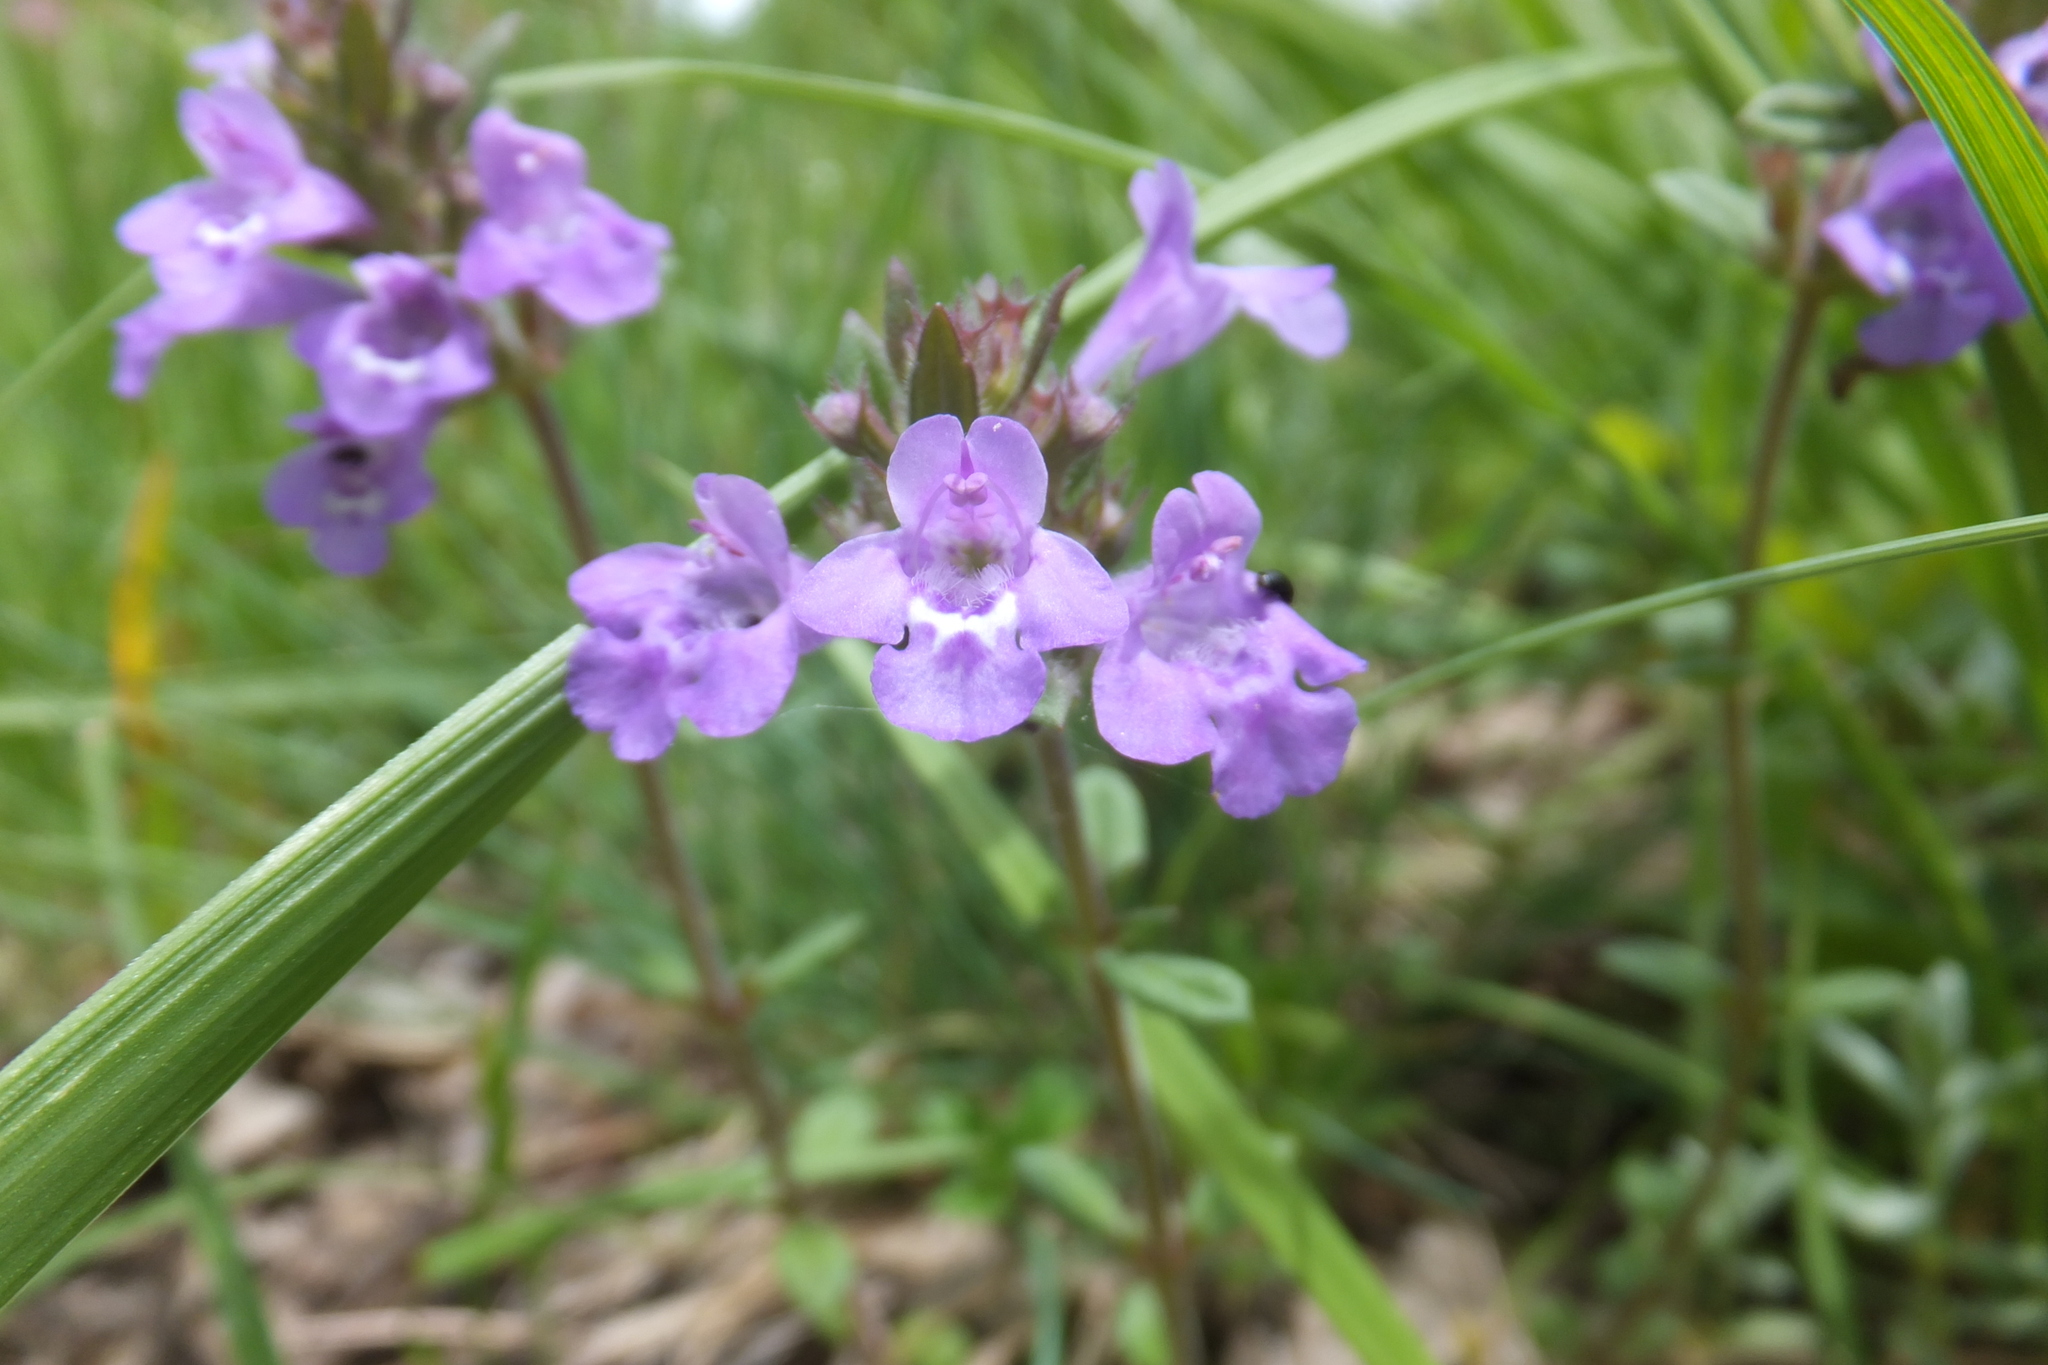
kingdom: Plantae
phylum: Tracheophyta
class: Magnoliopsida
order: Lamiales
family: Lamiaceae
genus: Clinopodium
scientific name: Clinopodium alpinum
